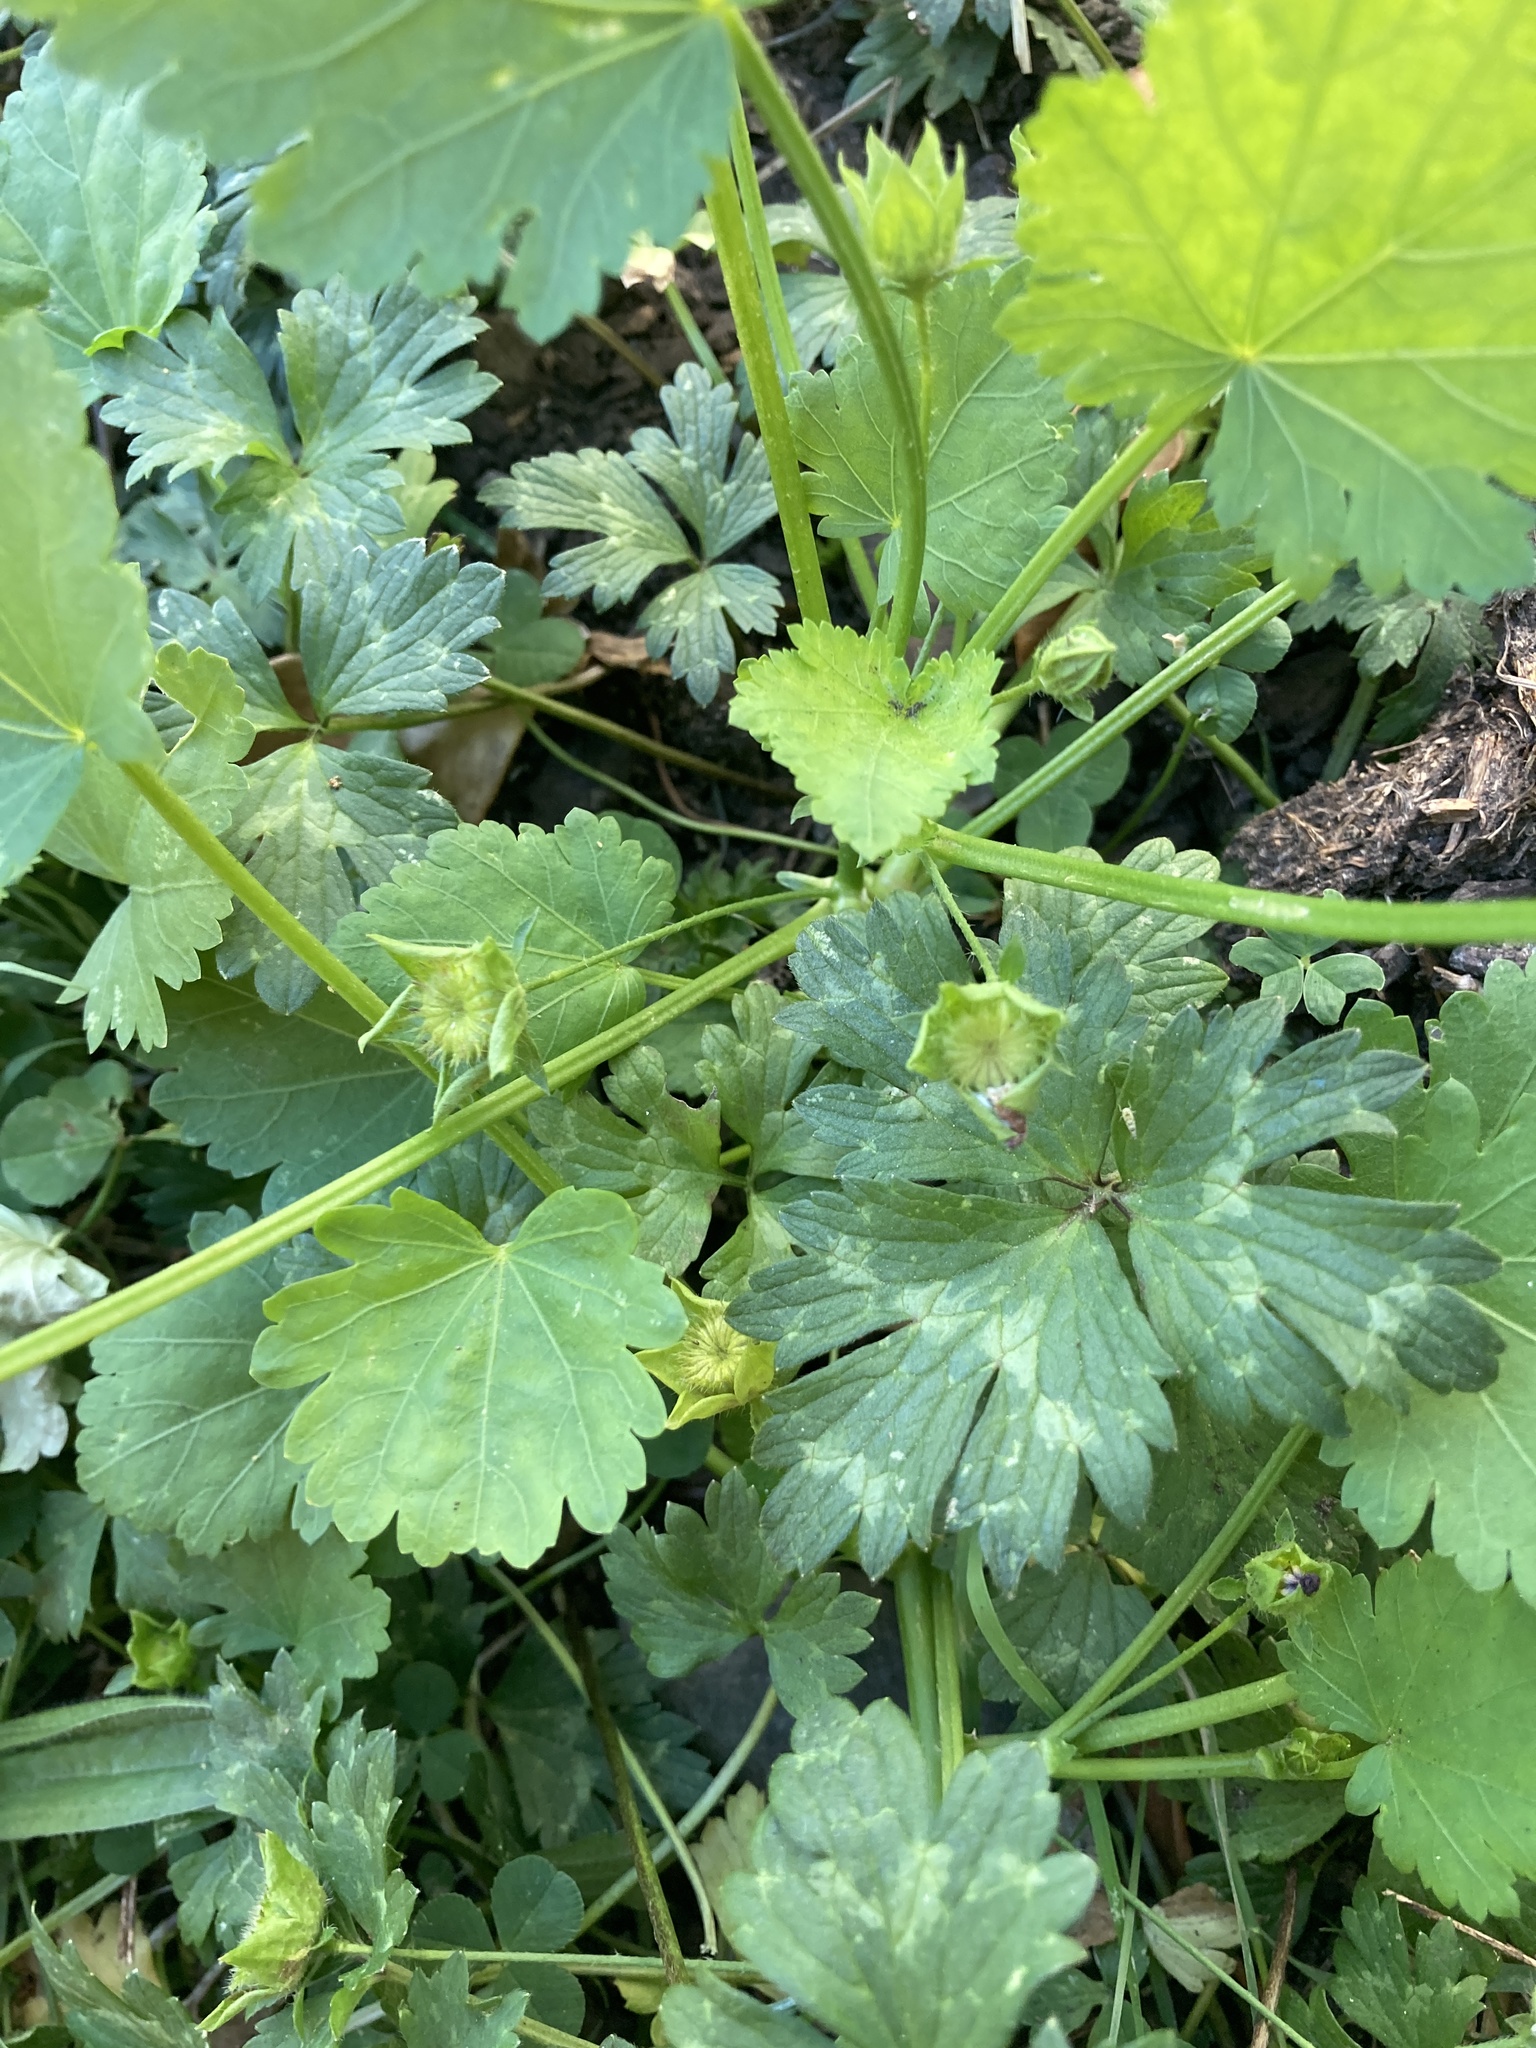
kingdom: Plantae
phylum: Tracheophyta
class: Magnoliopsida
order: Malvales
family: Malvaceae
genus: Modiola
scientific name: Modiola caroliniana
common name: Carolina bristlemallow
